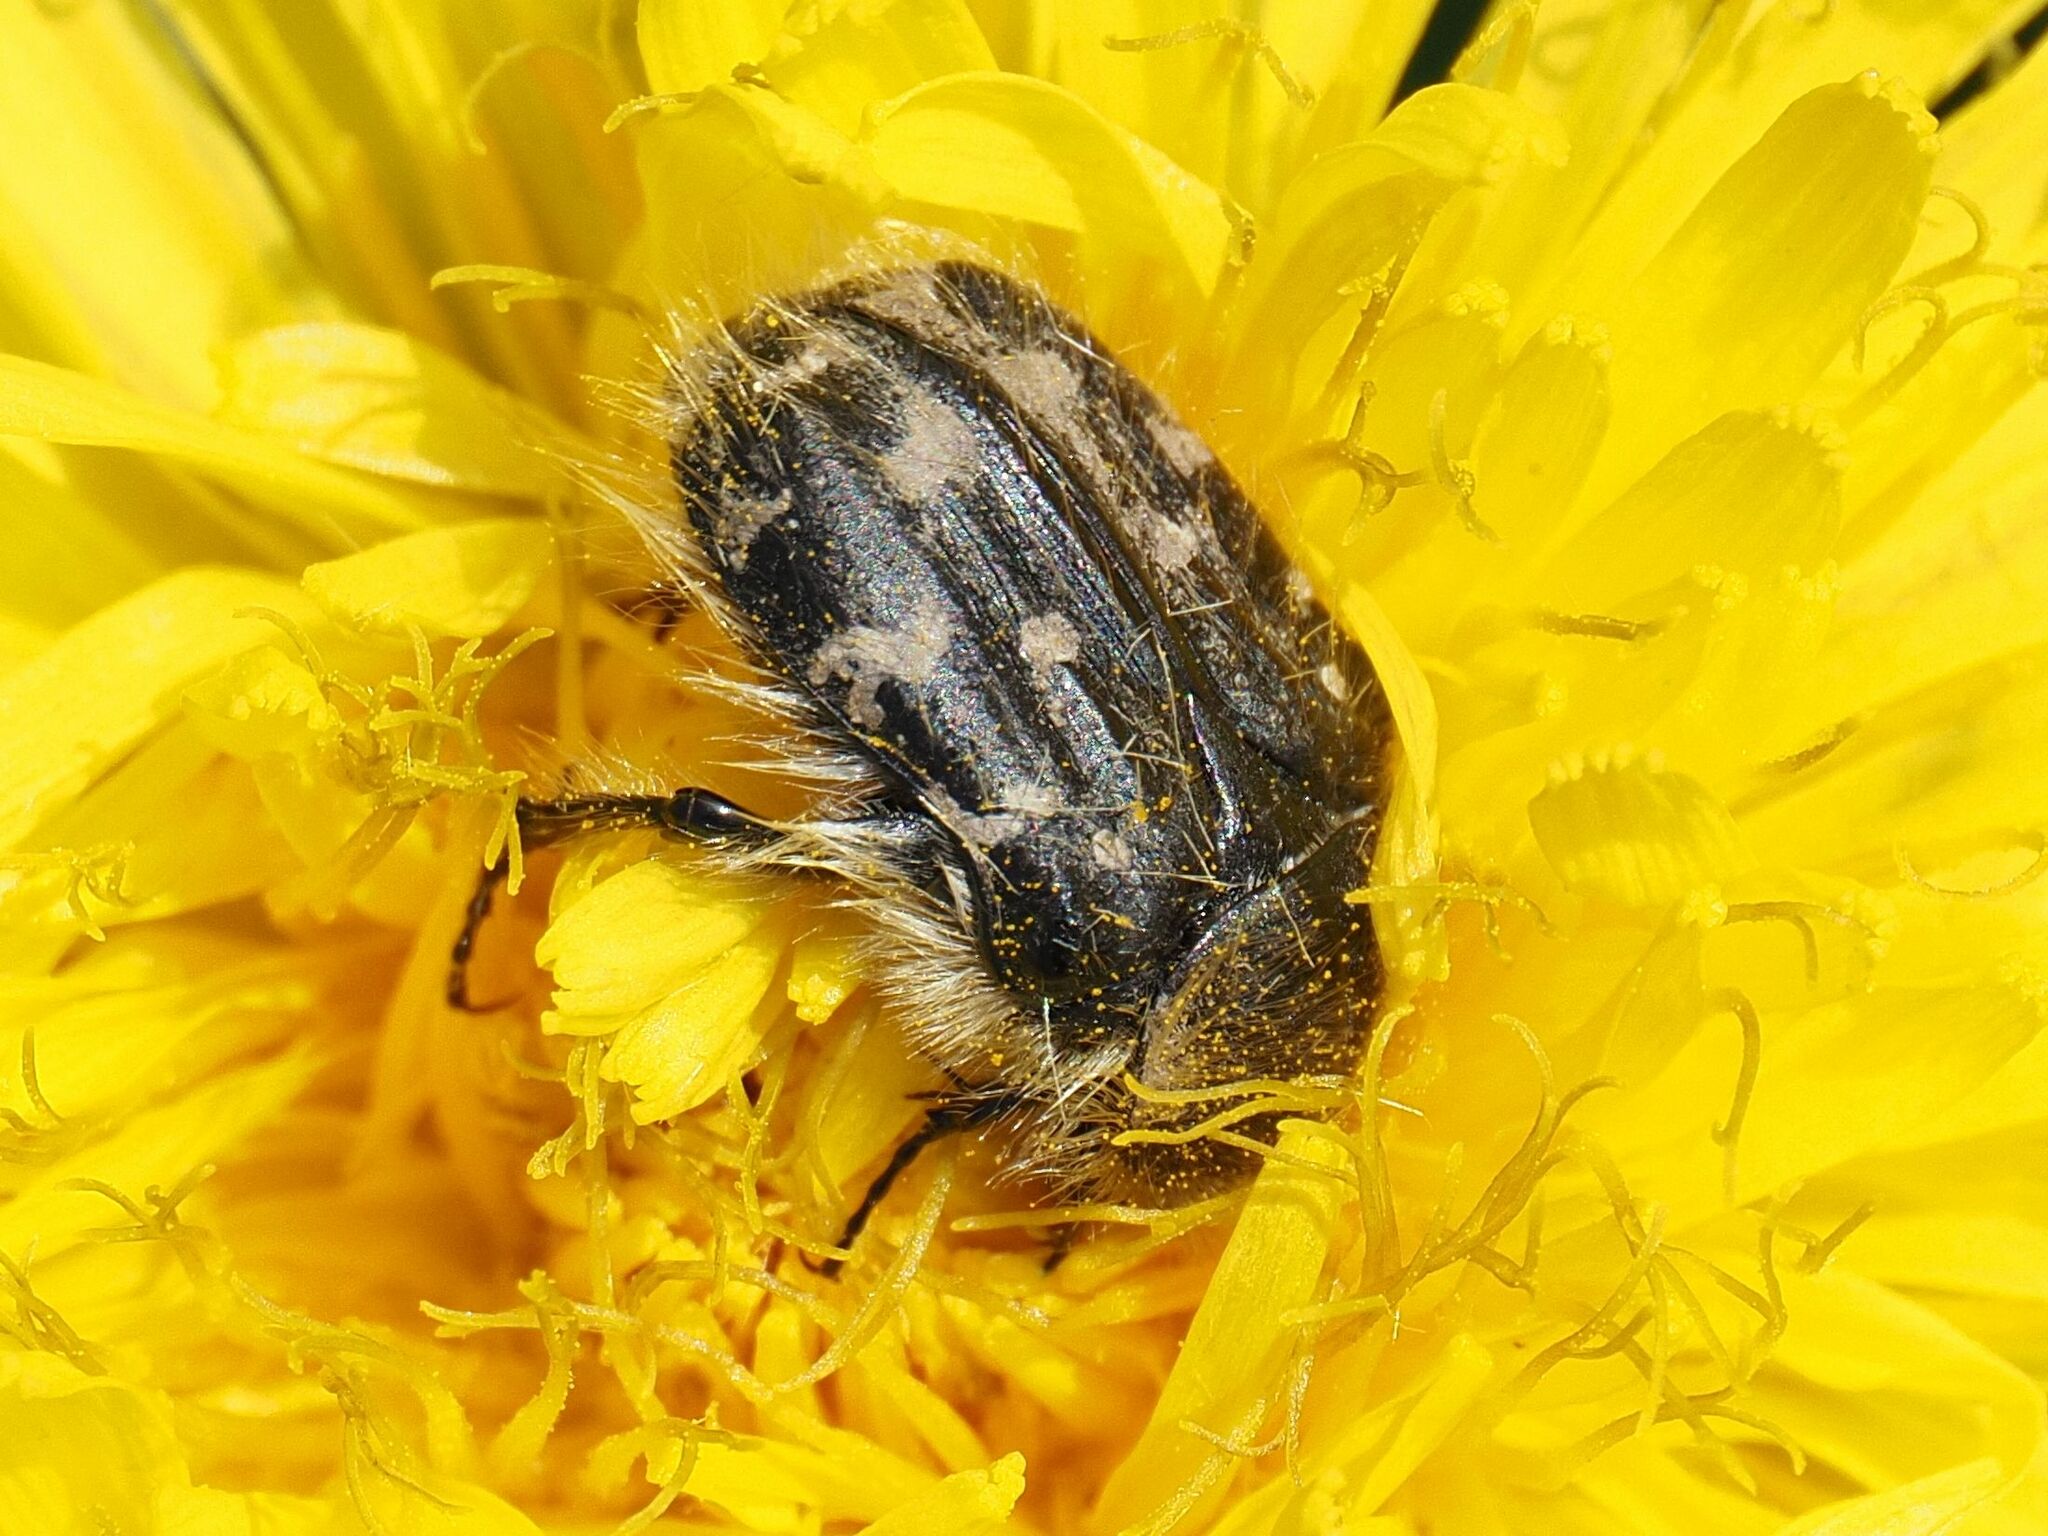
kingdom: Animalia
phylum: Arthropoda
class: Insecta
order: Coleoptera
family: Scarabaeidae
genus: Tropinota
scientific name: Tropinota hirta
